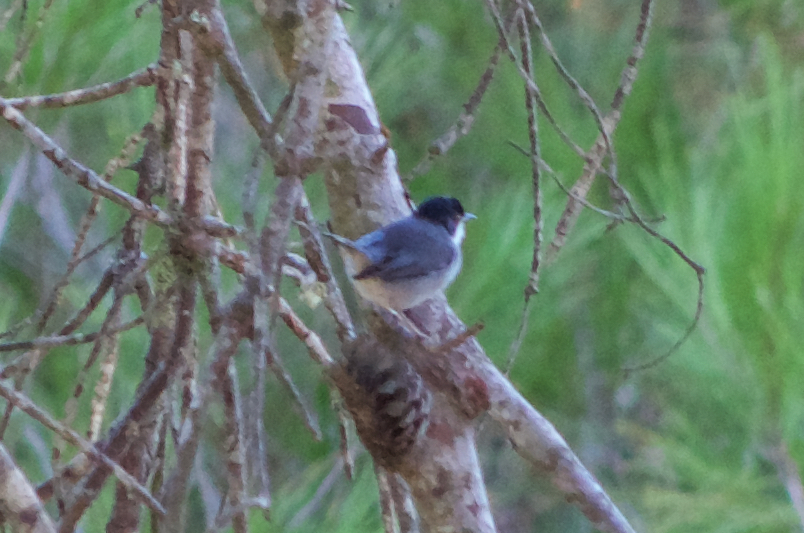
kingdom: Animalia
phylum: Chordata
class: Aves
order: Passeriformes
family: Sylviidae
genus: Curruca
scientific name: Curruca melanocephala
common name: Sardinian warbler
